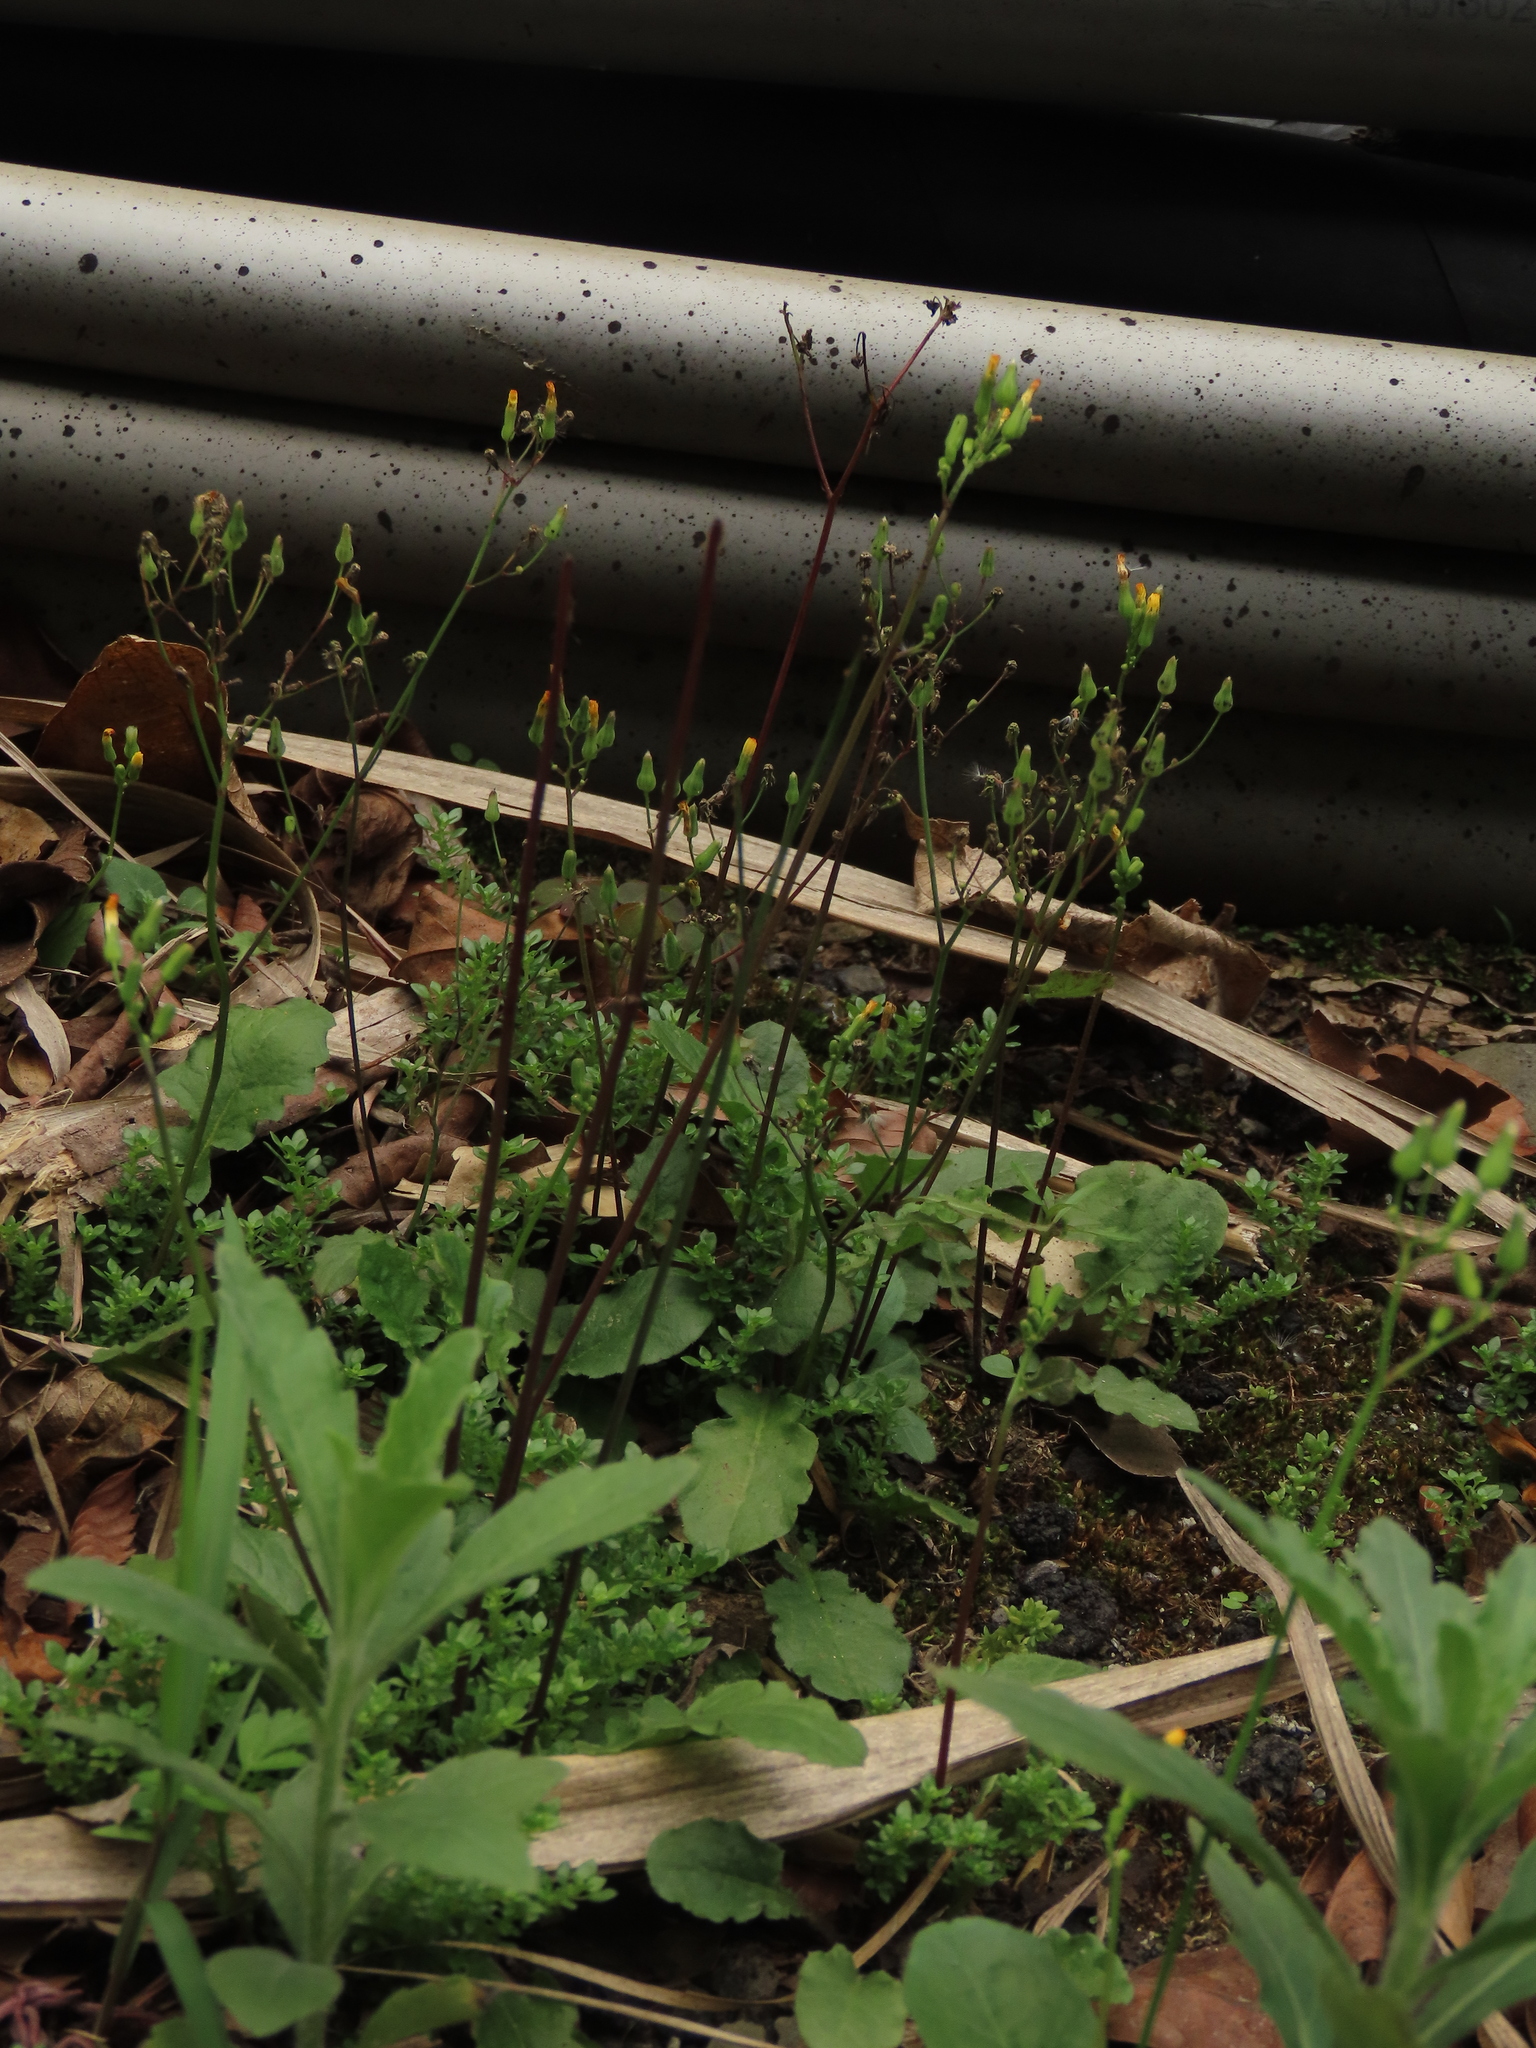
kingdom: Plantae
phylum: Tracheophyta
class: Magnoliopsida
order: Asterales
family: Asteraceae
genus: Youngia
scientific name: Youngia japonica
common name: Oriental false hawksbeard
